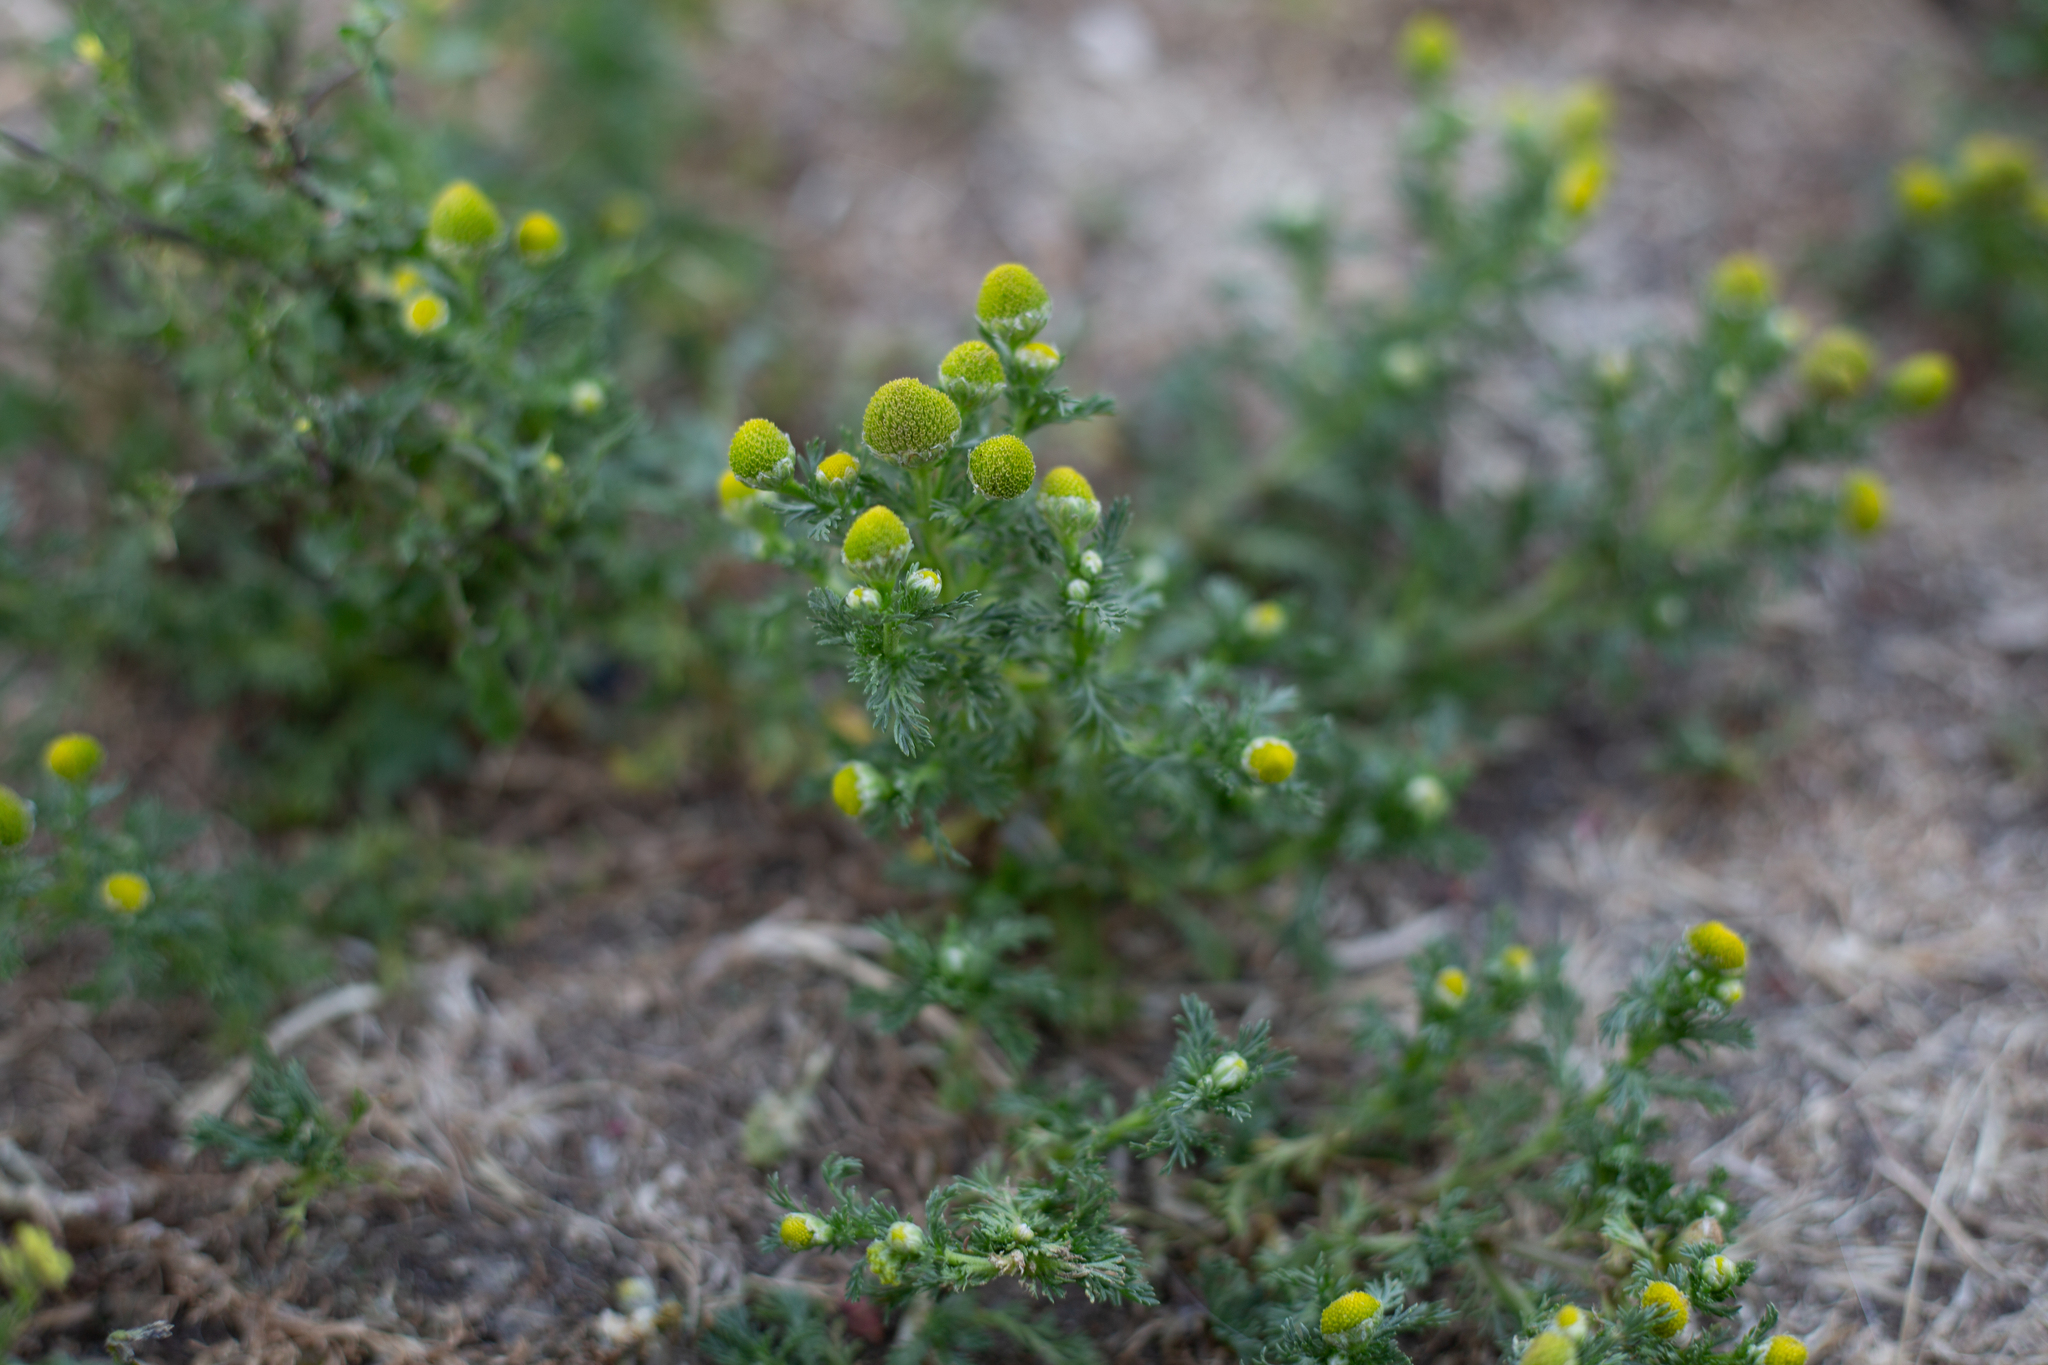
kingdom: Plantae
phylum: Tracheophyta
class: Magnoliopsida
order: Asterales
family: Asteraceae
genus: Matricaria
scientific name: Matricaria discoidea
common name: Disc mayweed
